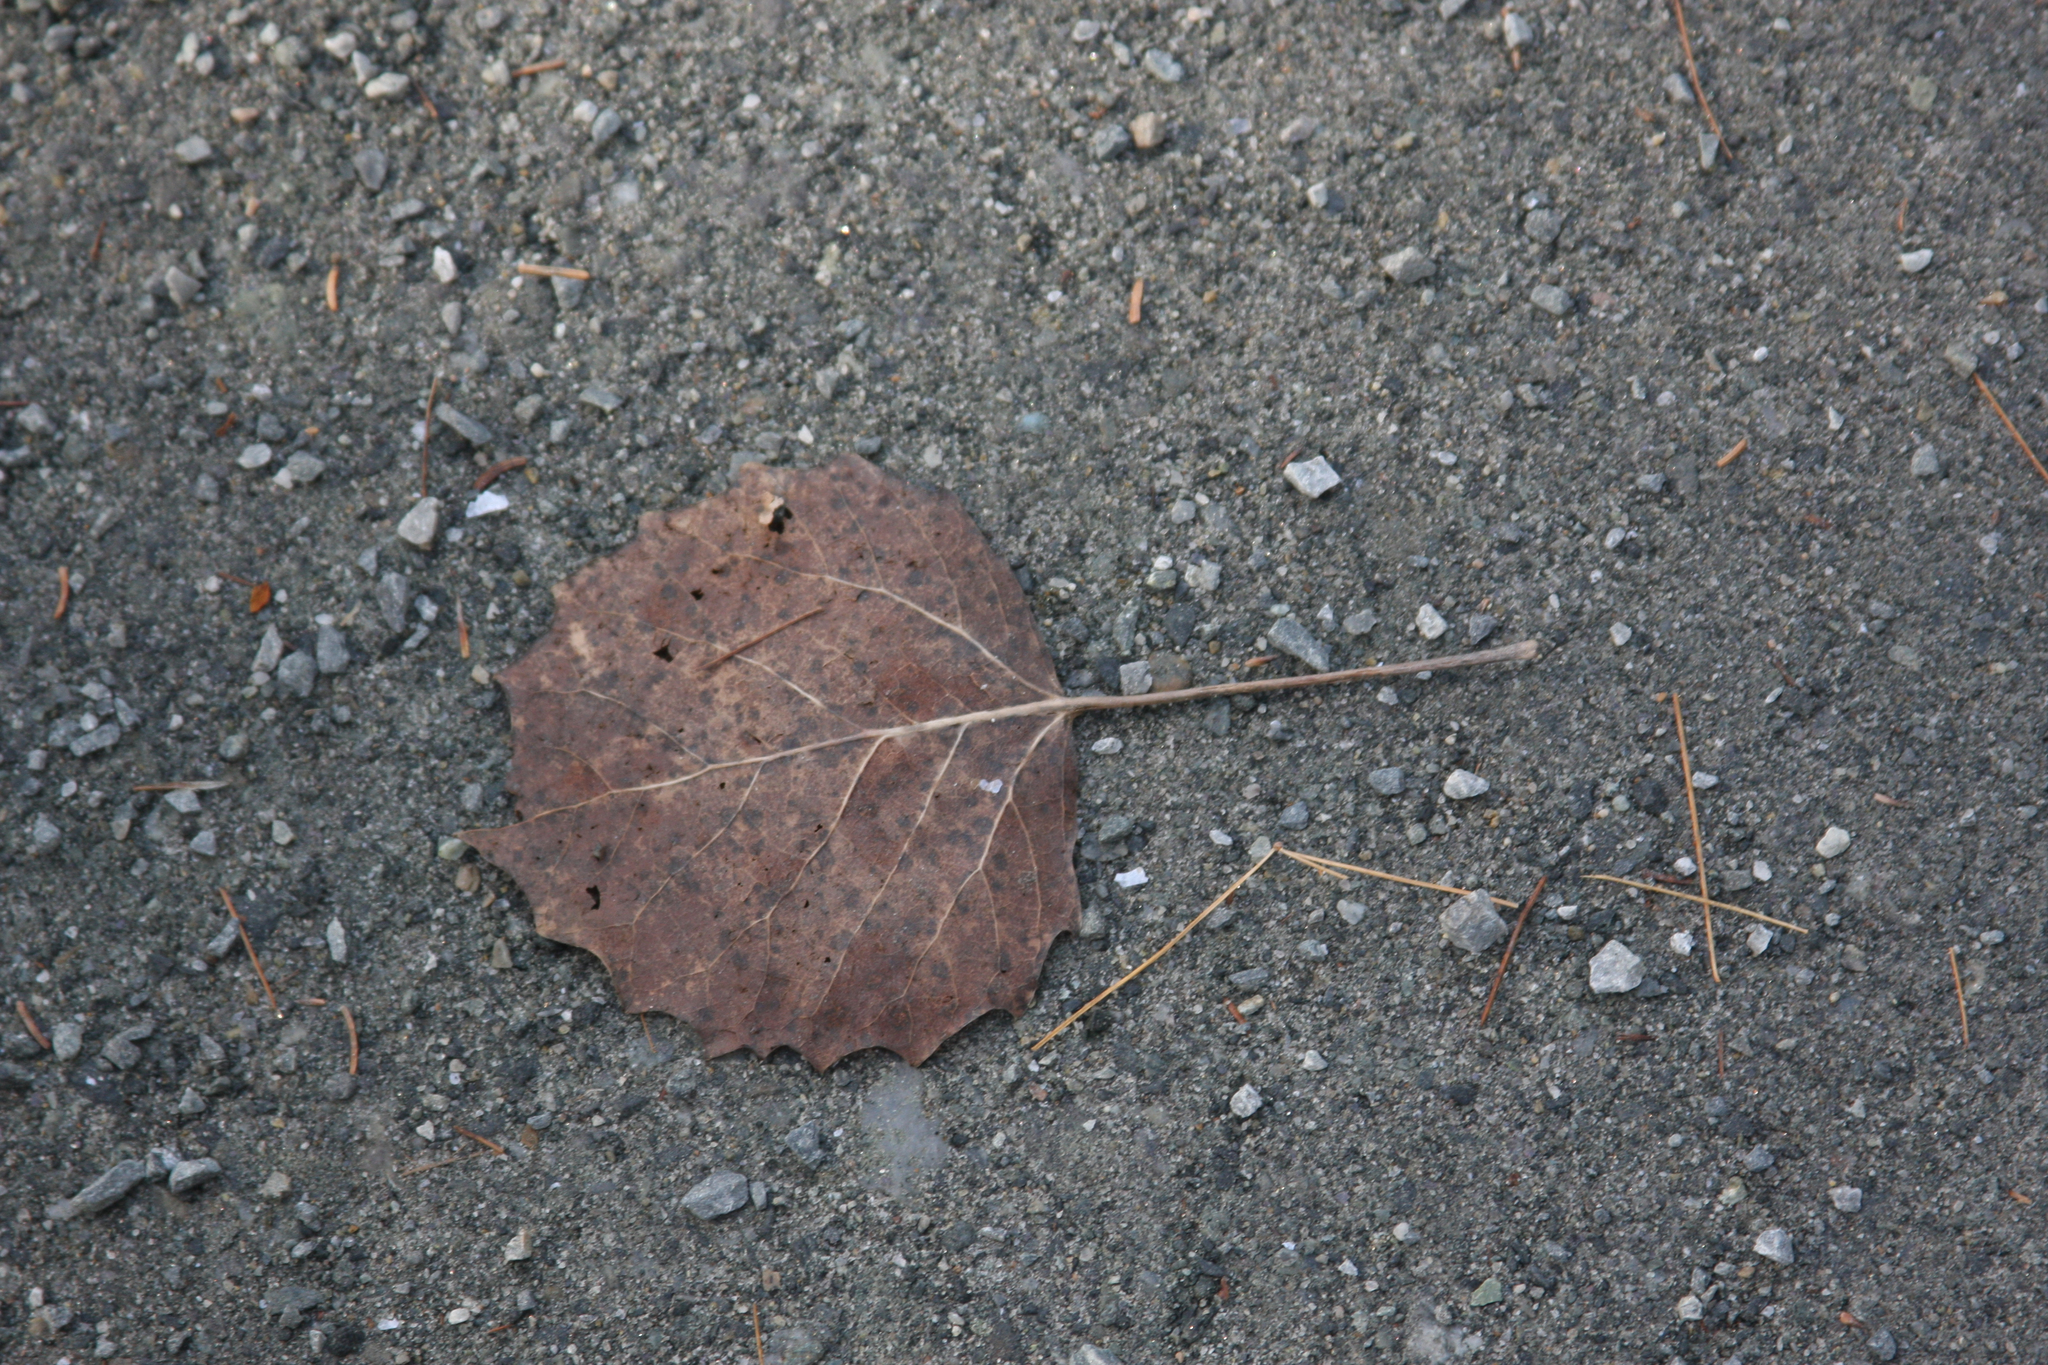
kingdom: Plantae
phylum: Tracheophyta
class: Magnoliopsida
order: Malpighiales
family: Salicaceae
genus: Populus
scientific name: Populus grandidentata
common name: Bigtooth aspen
